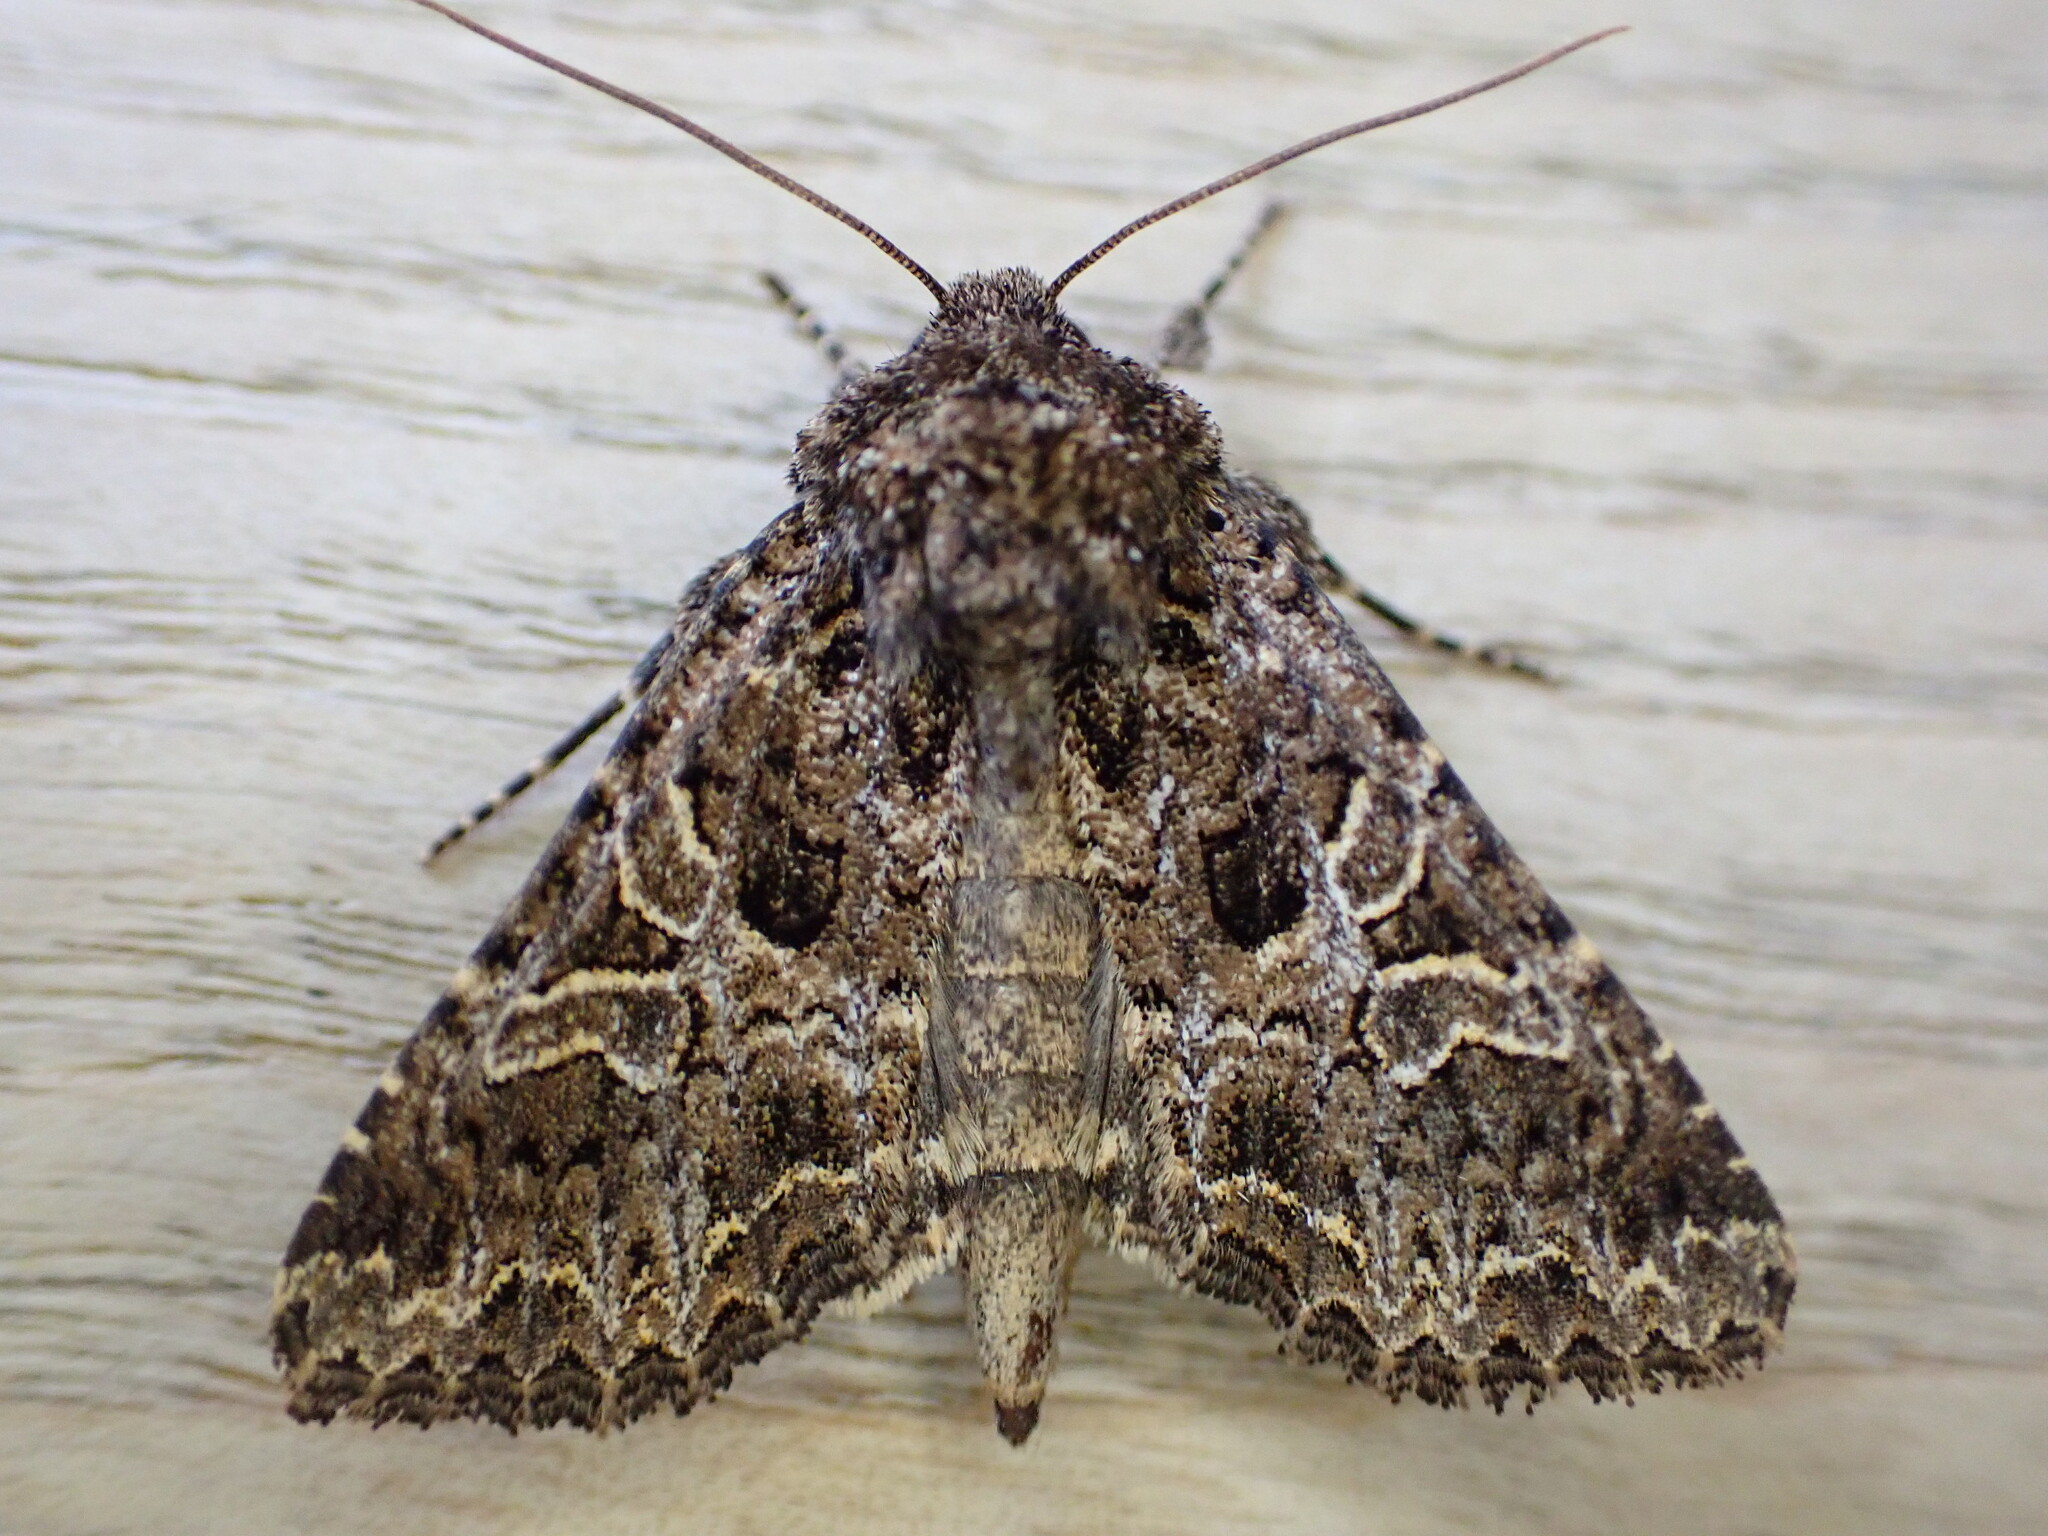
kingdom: Animalia
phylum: Arthropoda
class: Insecta
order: Lepidoptera
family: Noctuidae
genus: Hadena
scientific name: Hadena bicruris
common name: Lychnis
